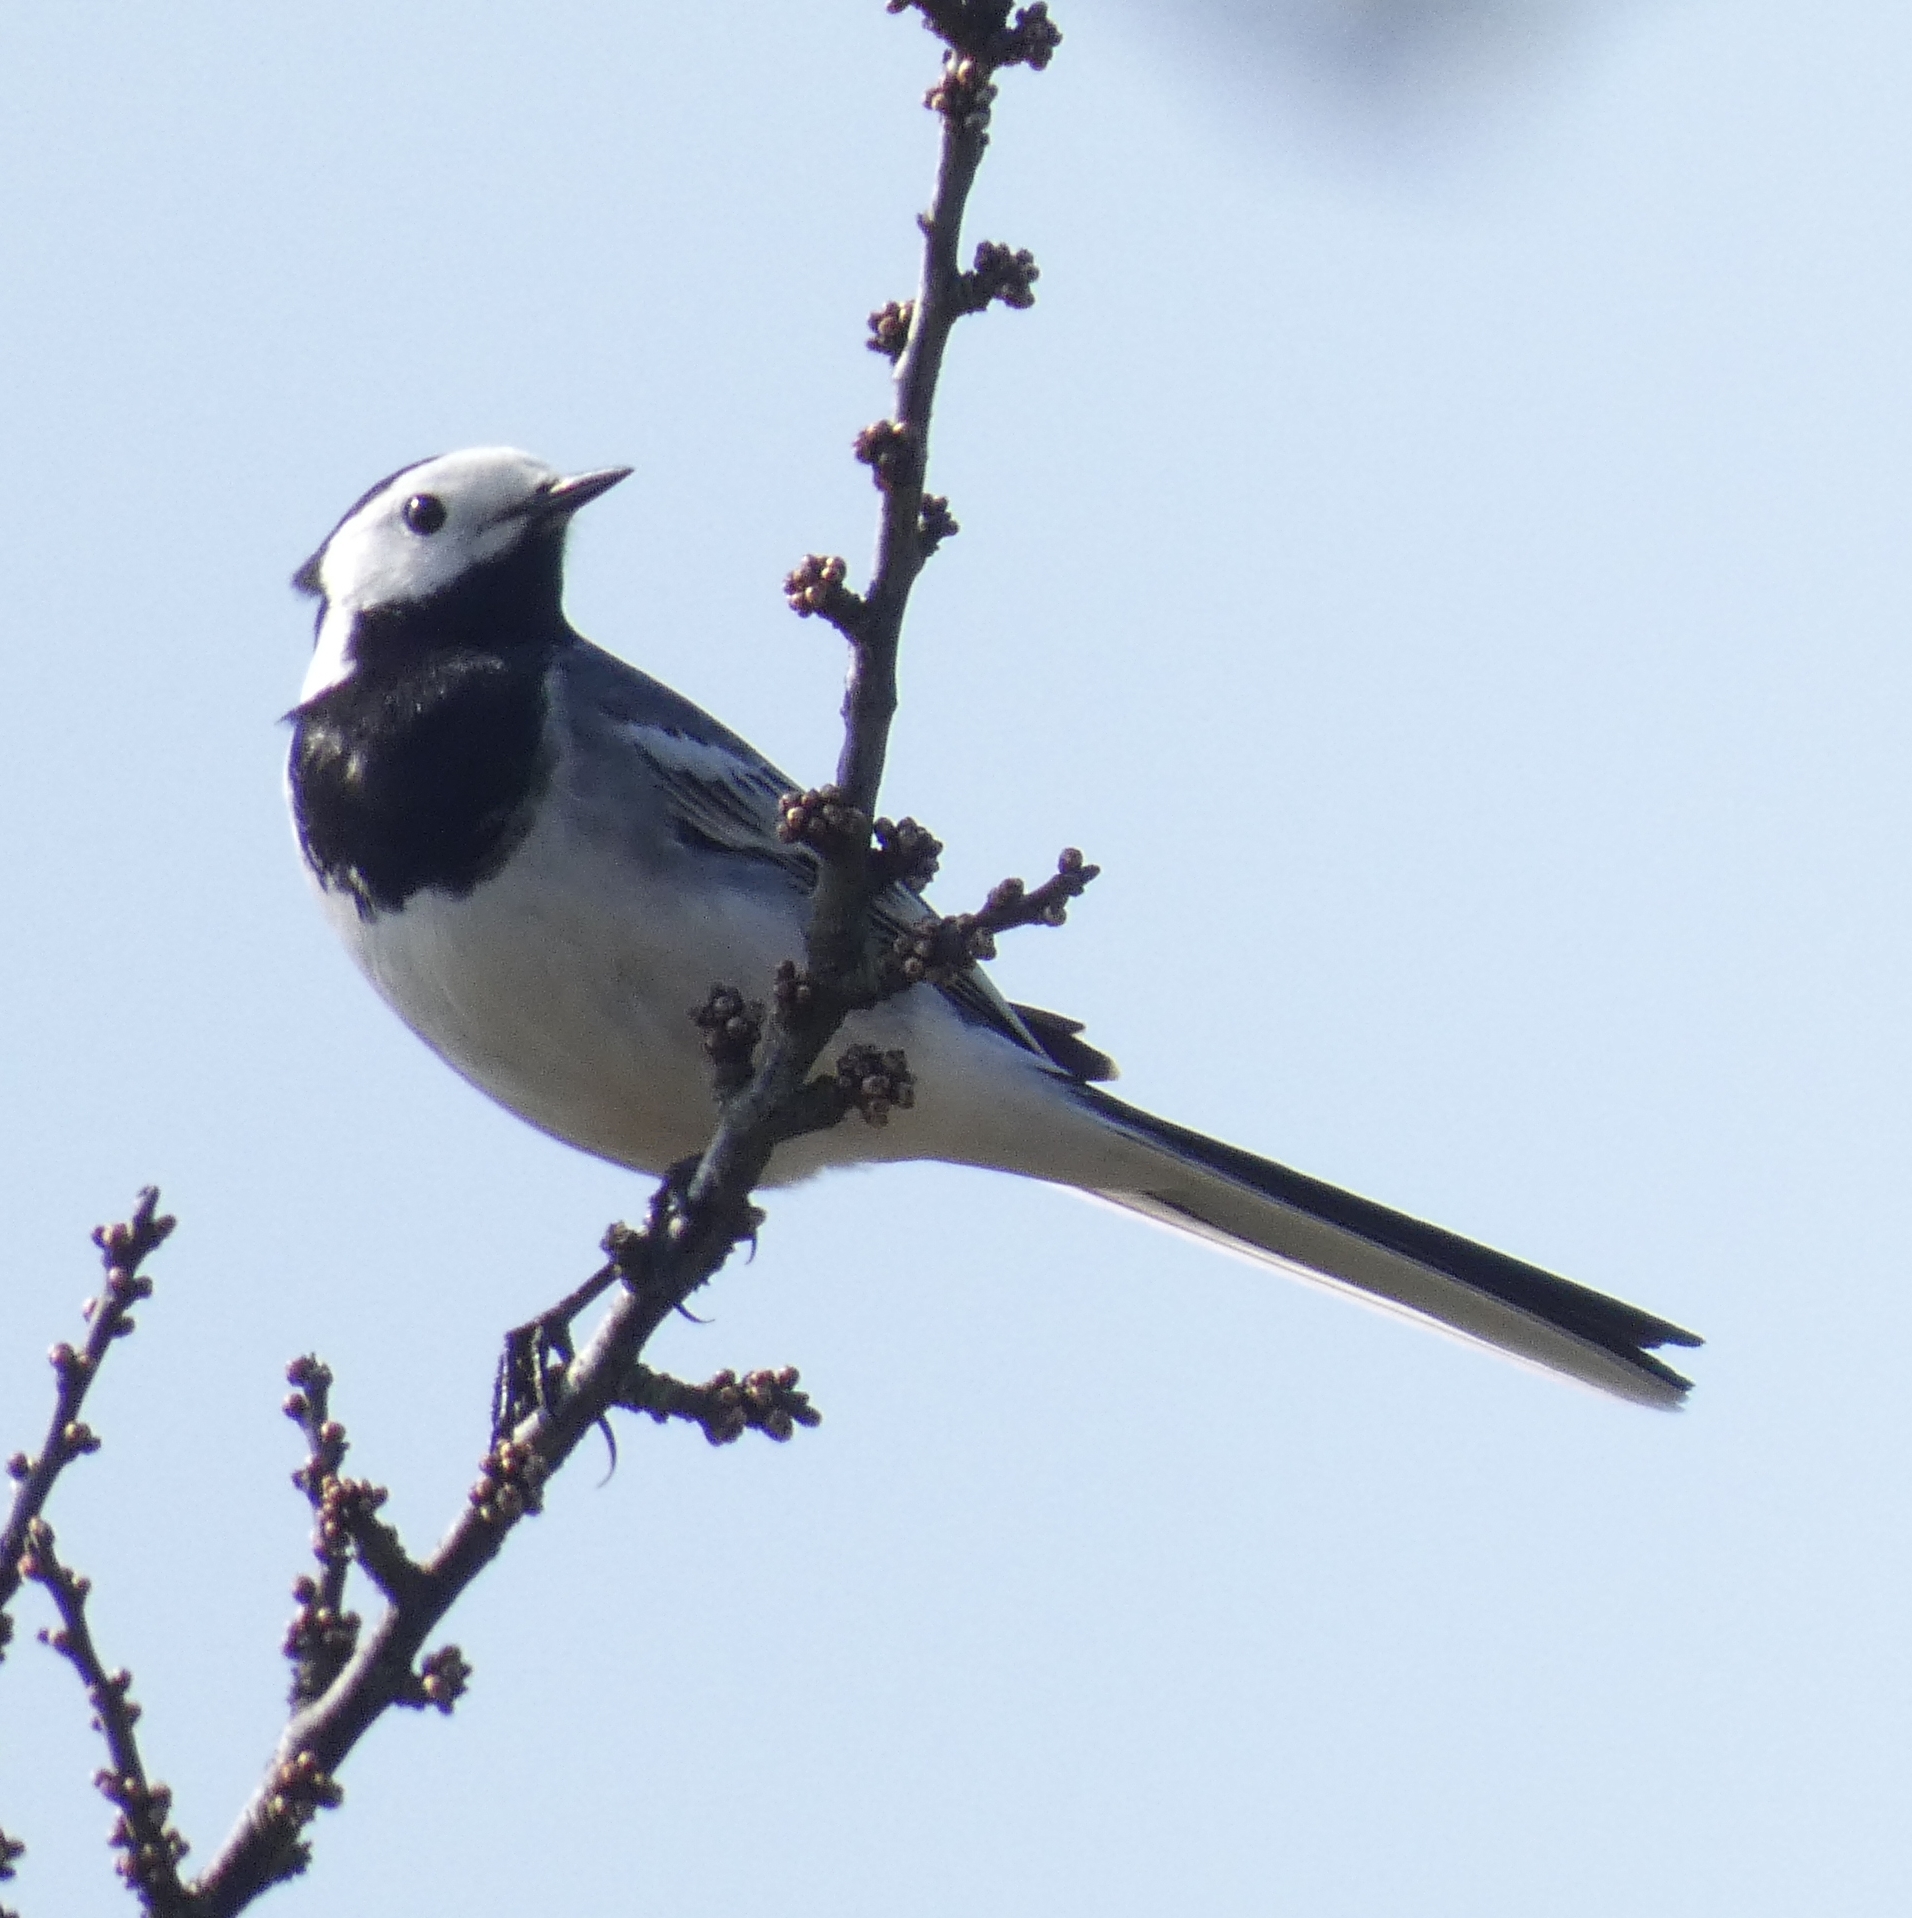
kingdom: Animalia
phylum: Chordata
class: Aves
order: Passeriformes
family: Motacillidae
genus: Motacilla
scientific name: Motacilla alba
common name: White wagtail
